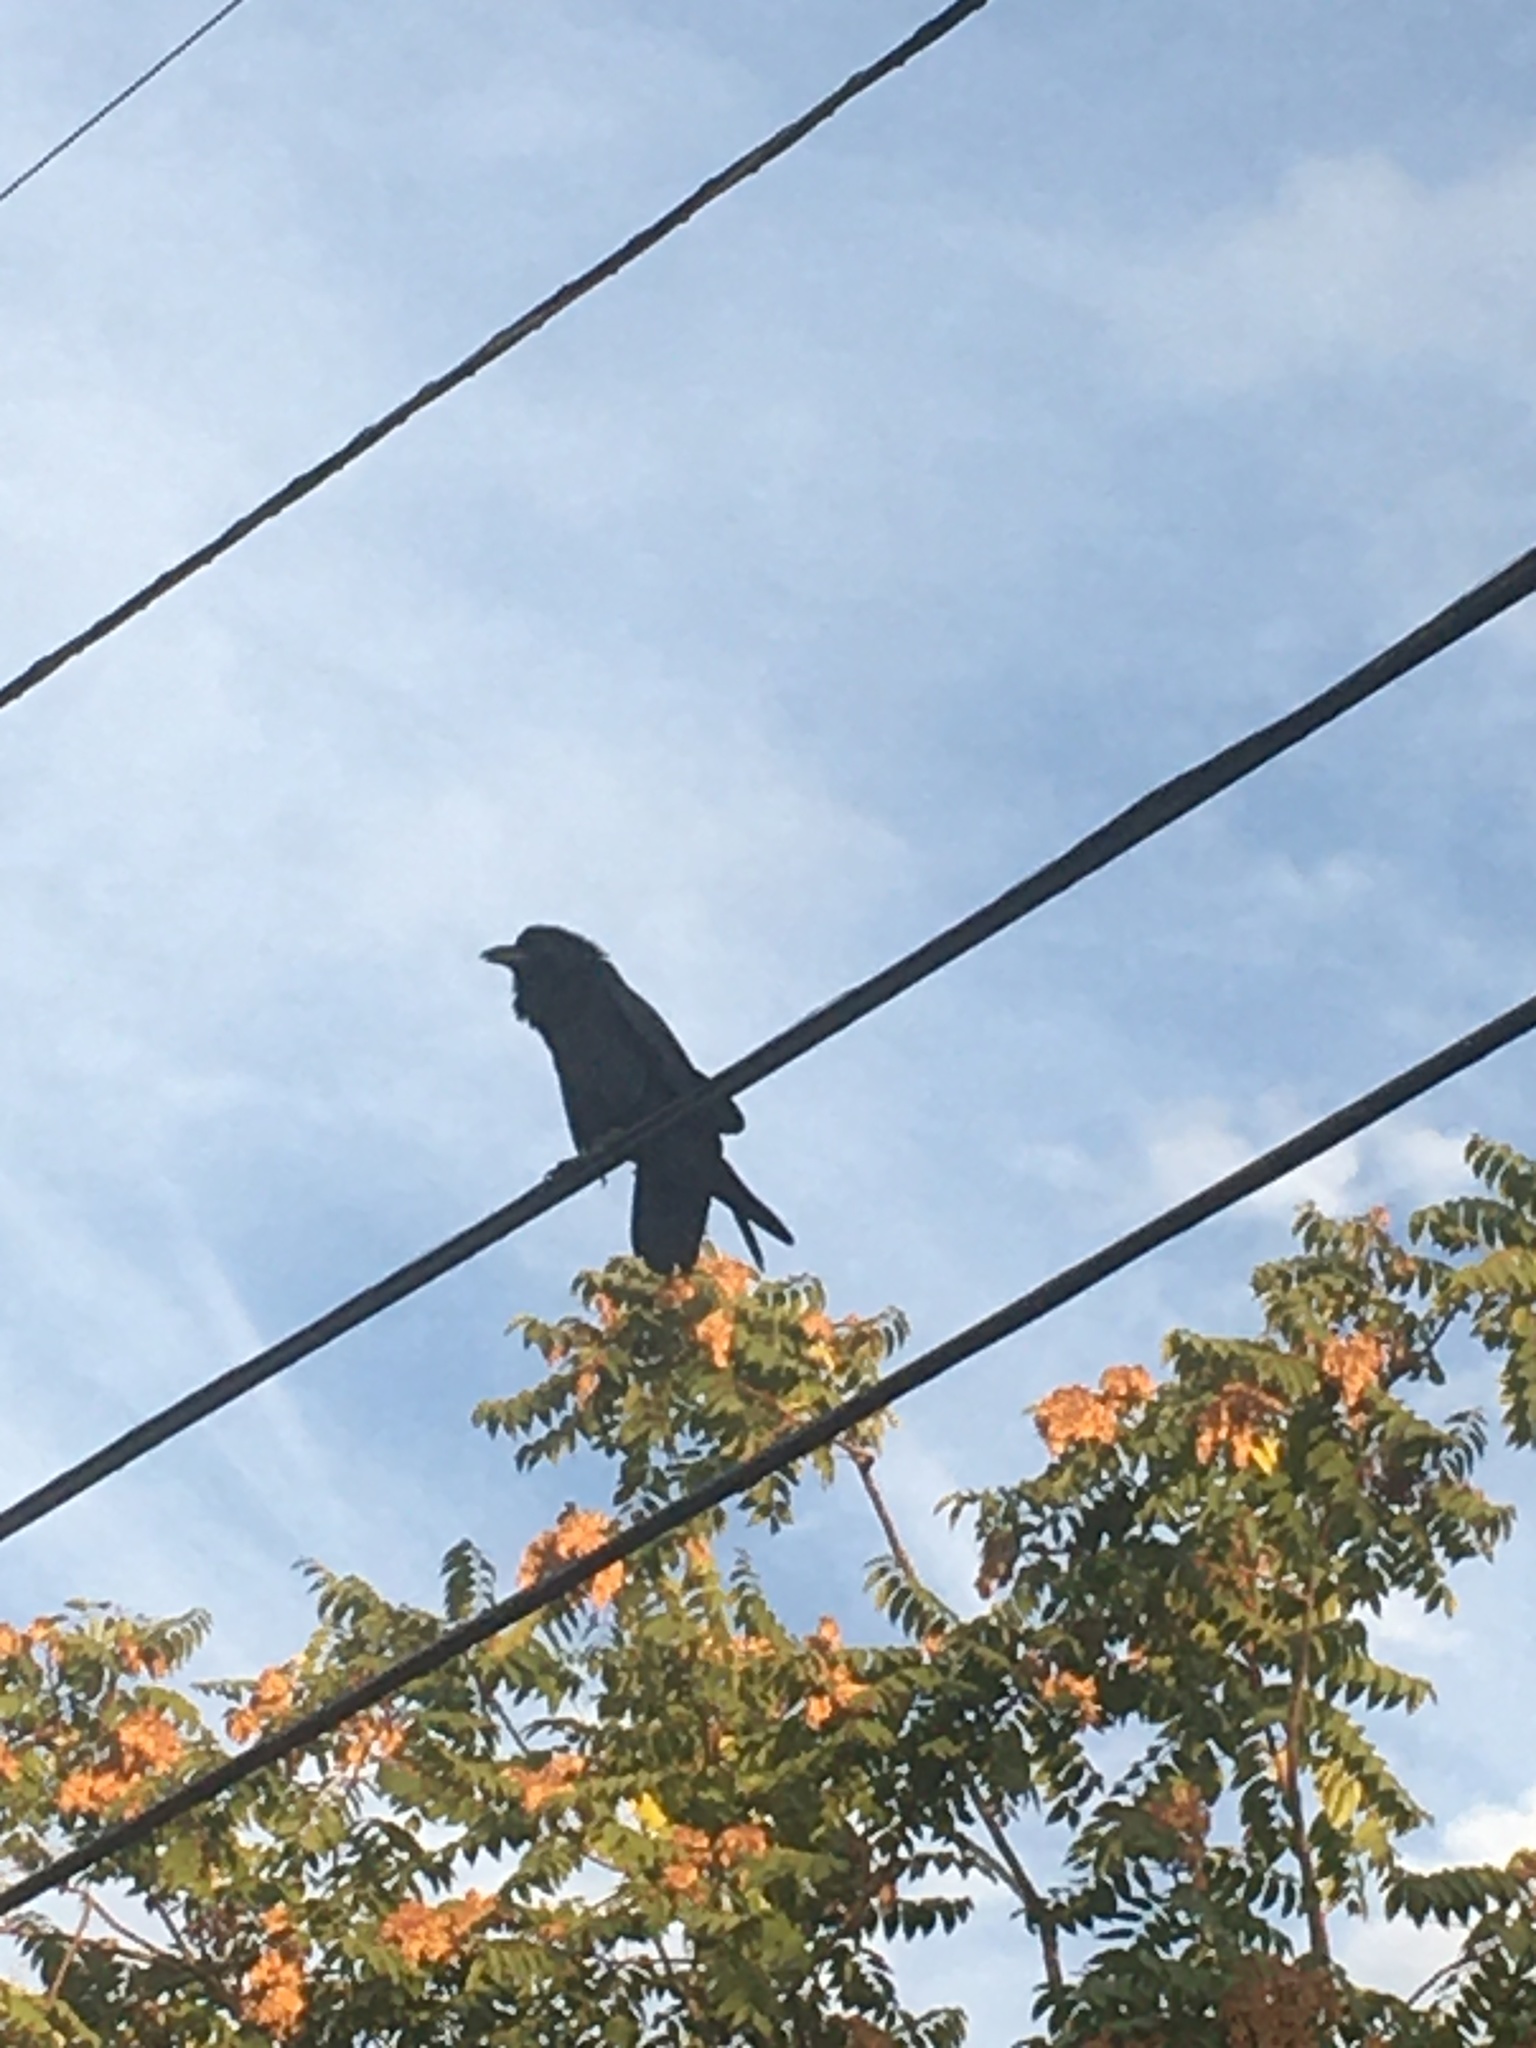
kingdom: Animalia
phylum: Chordata
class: Aves
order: Passeriformes
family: Corvidae
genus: Corvus
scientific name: Corvus corax
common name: Common raven
